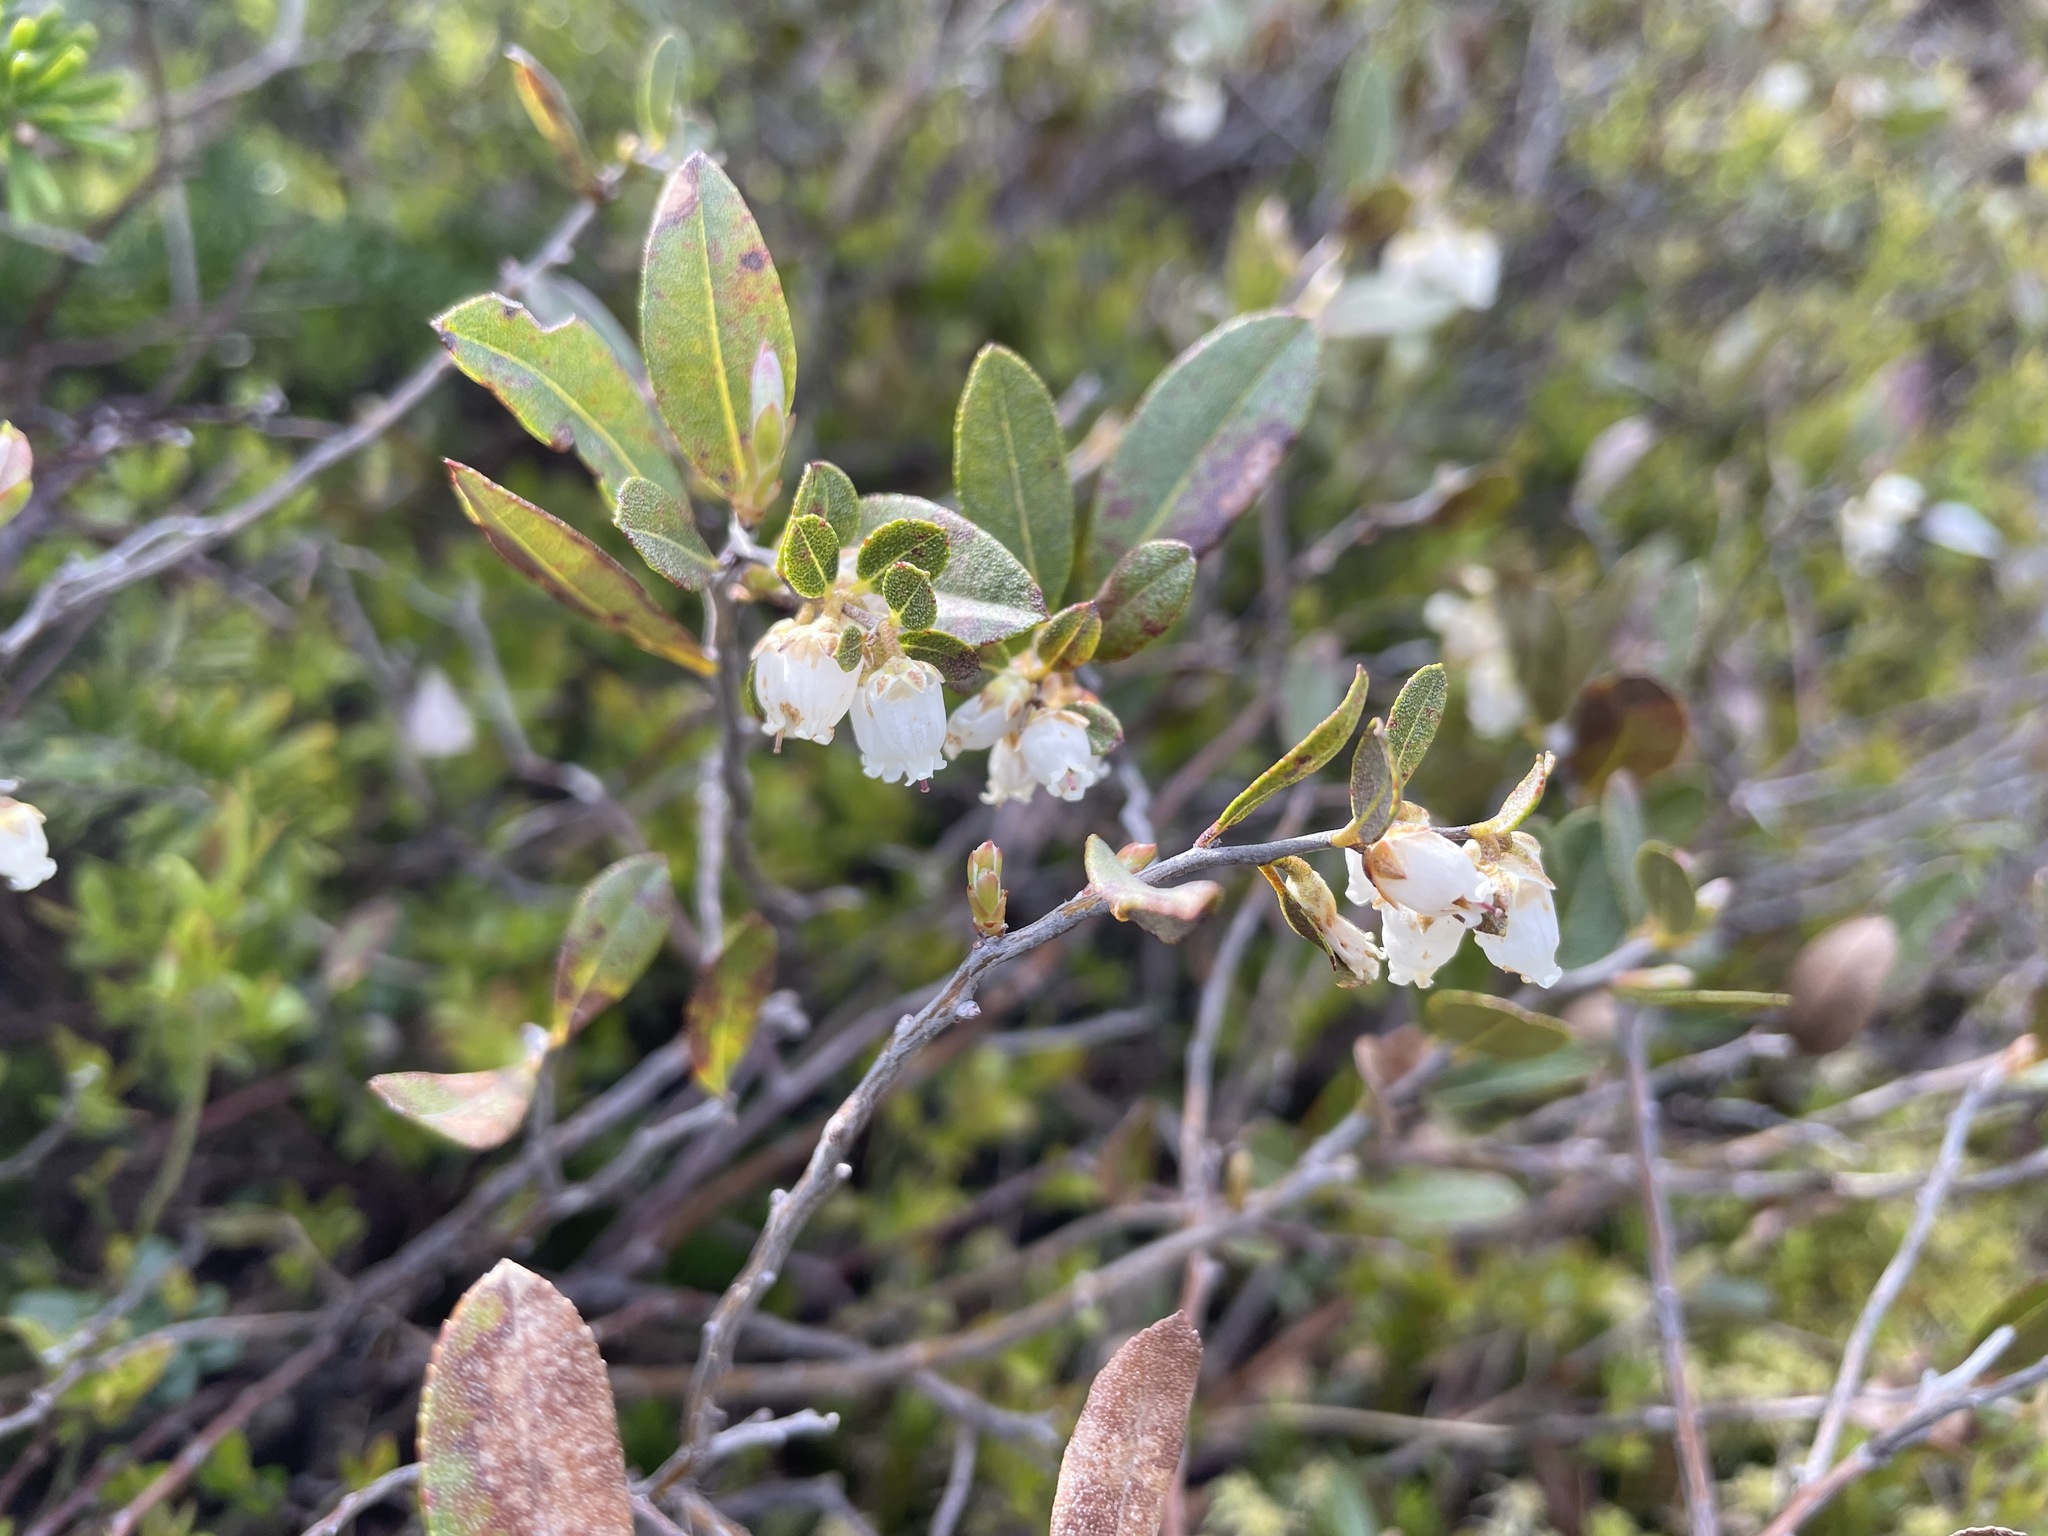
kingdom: Plantae
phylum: Tracheophyta
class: Magnoliopsida
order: Ericales
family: Ericaceae
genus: Chamaedaphne
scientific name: Chamaedaphne calyculata
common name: Leatherleaf
